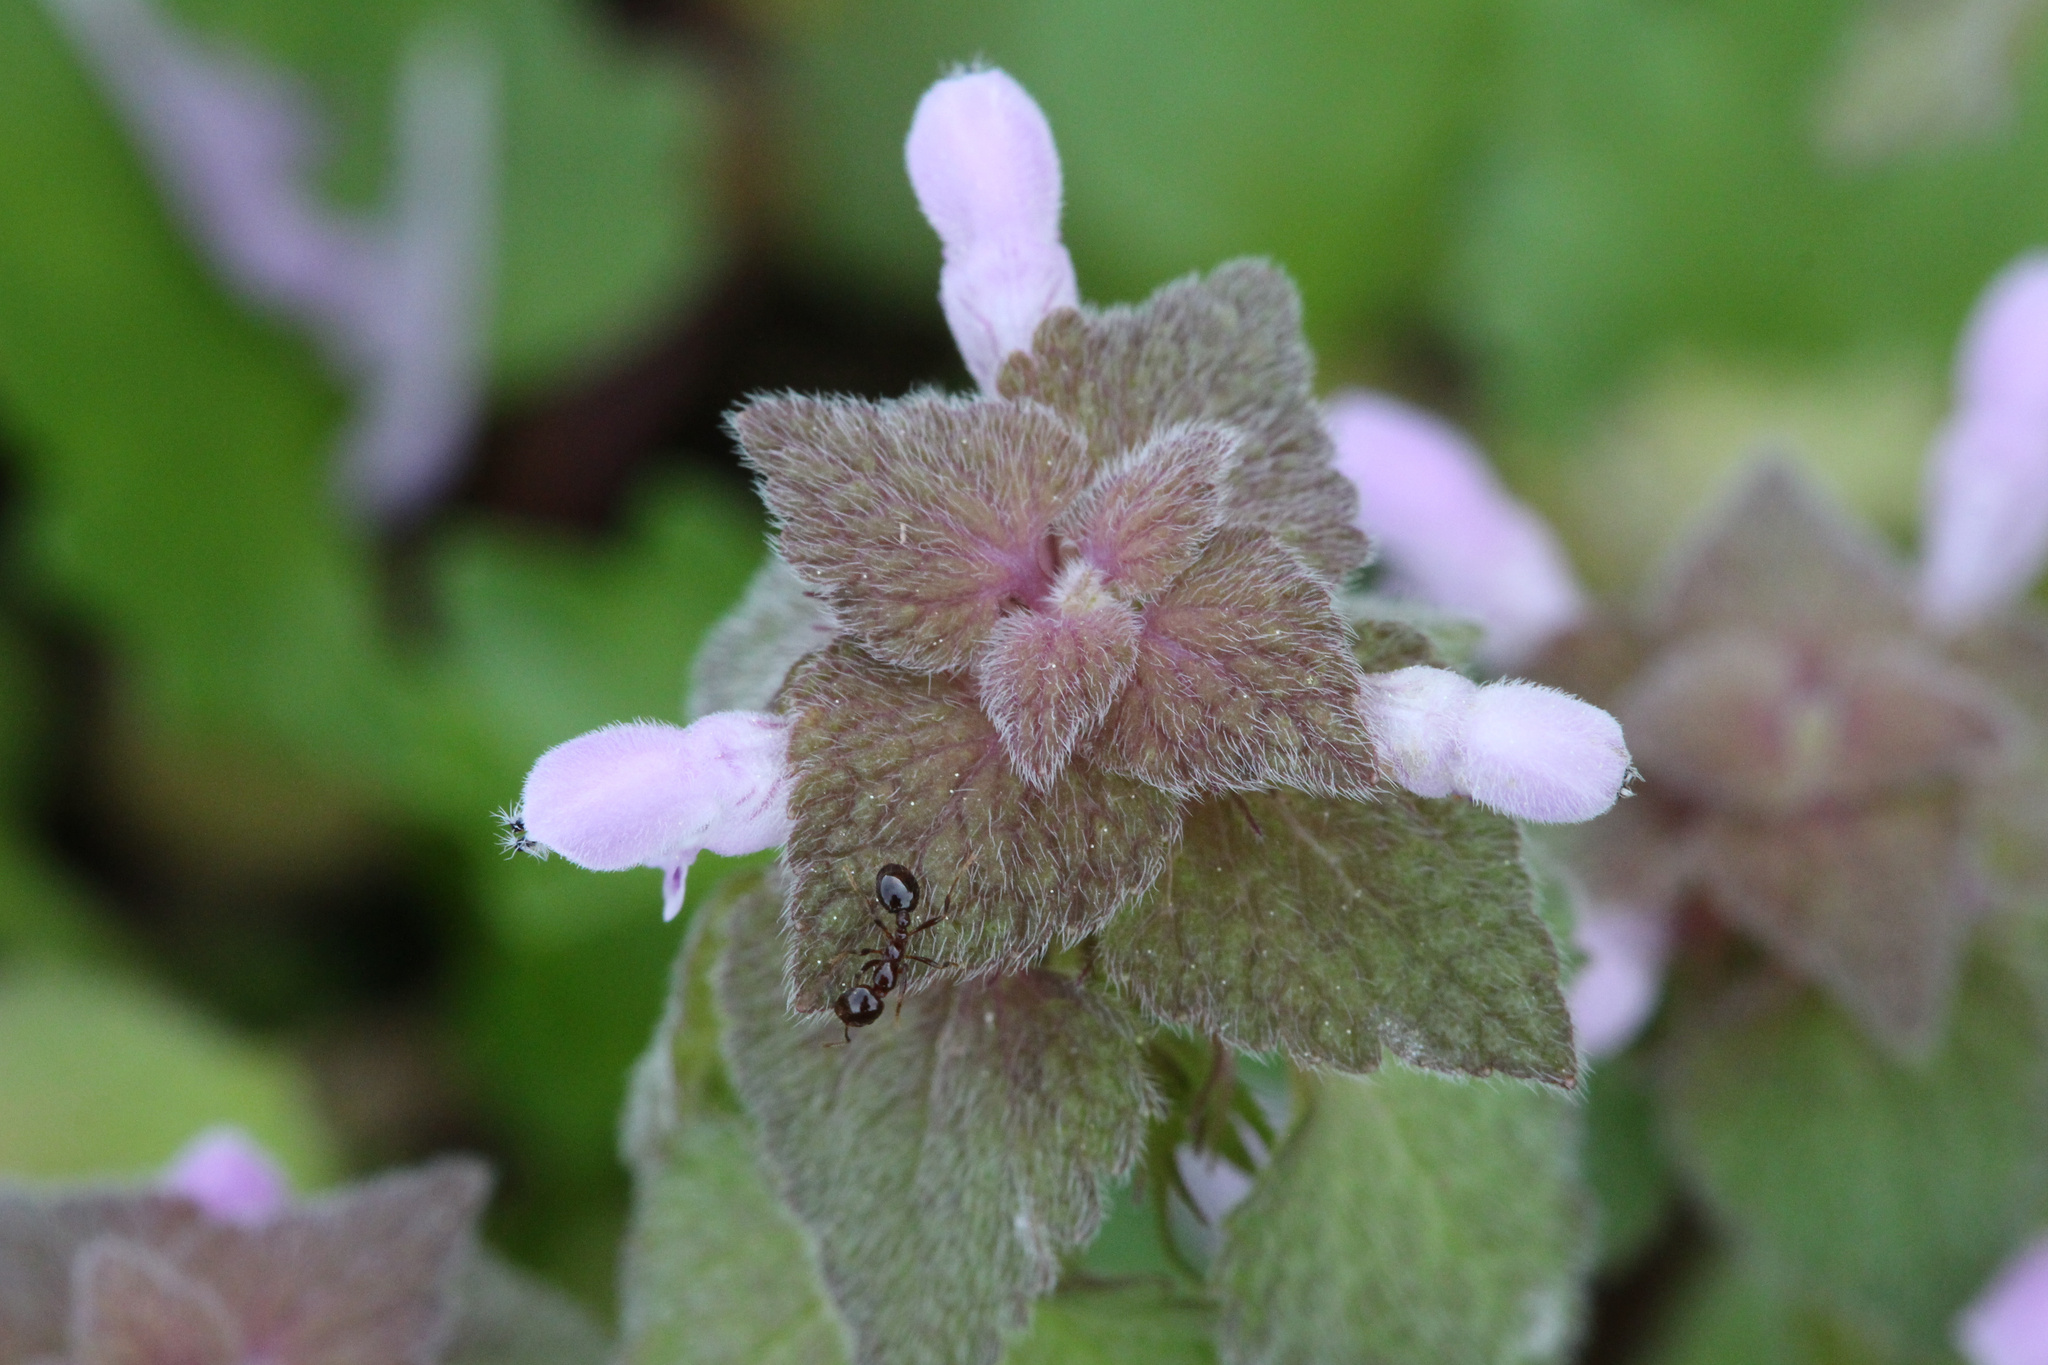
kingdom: Plantae
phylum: Tracheophyta
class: Magnoliopsida
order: Lamiales
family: Lamiaceae
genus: Lamium
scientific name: Lamium purpureum
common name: Red dead-nettle
